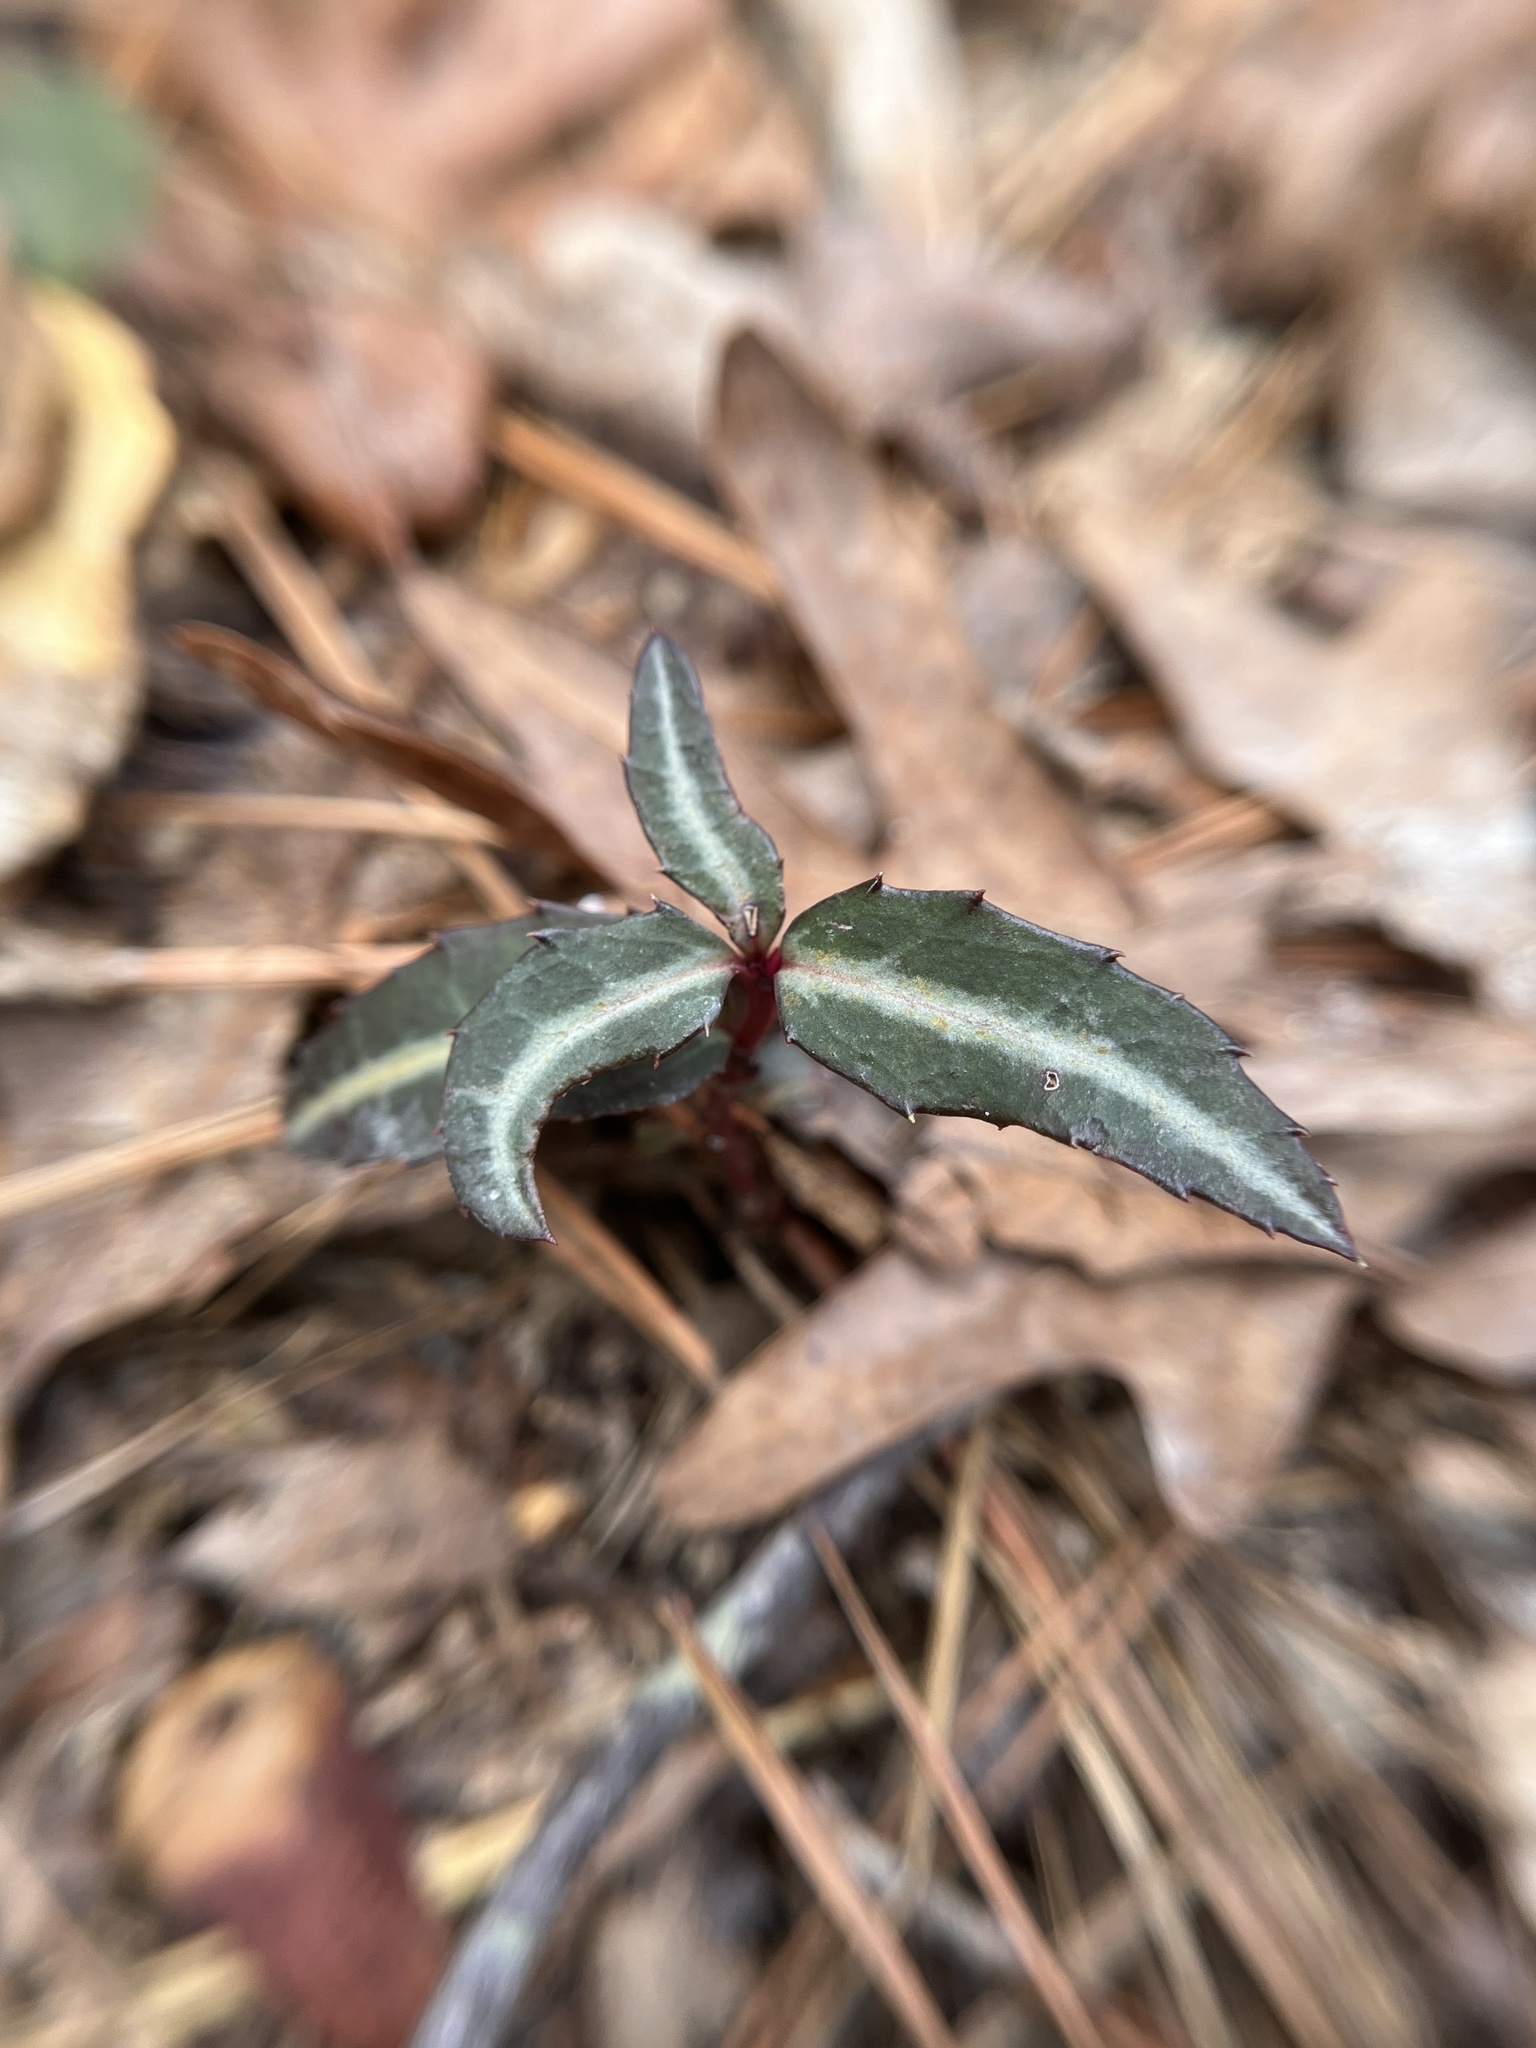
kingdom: Plantae
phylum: Tracheophyta
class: Magnoliopsida
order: Ericales
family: Ericaceae
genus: Chimaphila
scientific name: Chimaphila maculata
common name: Spotted pipsissewa
